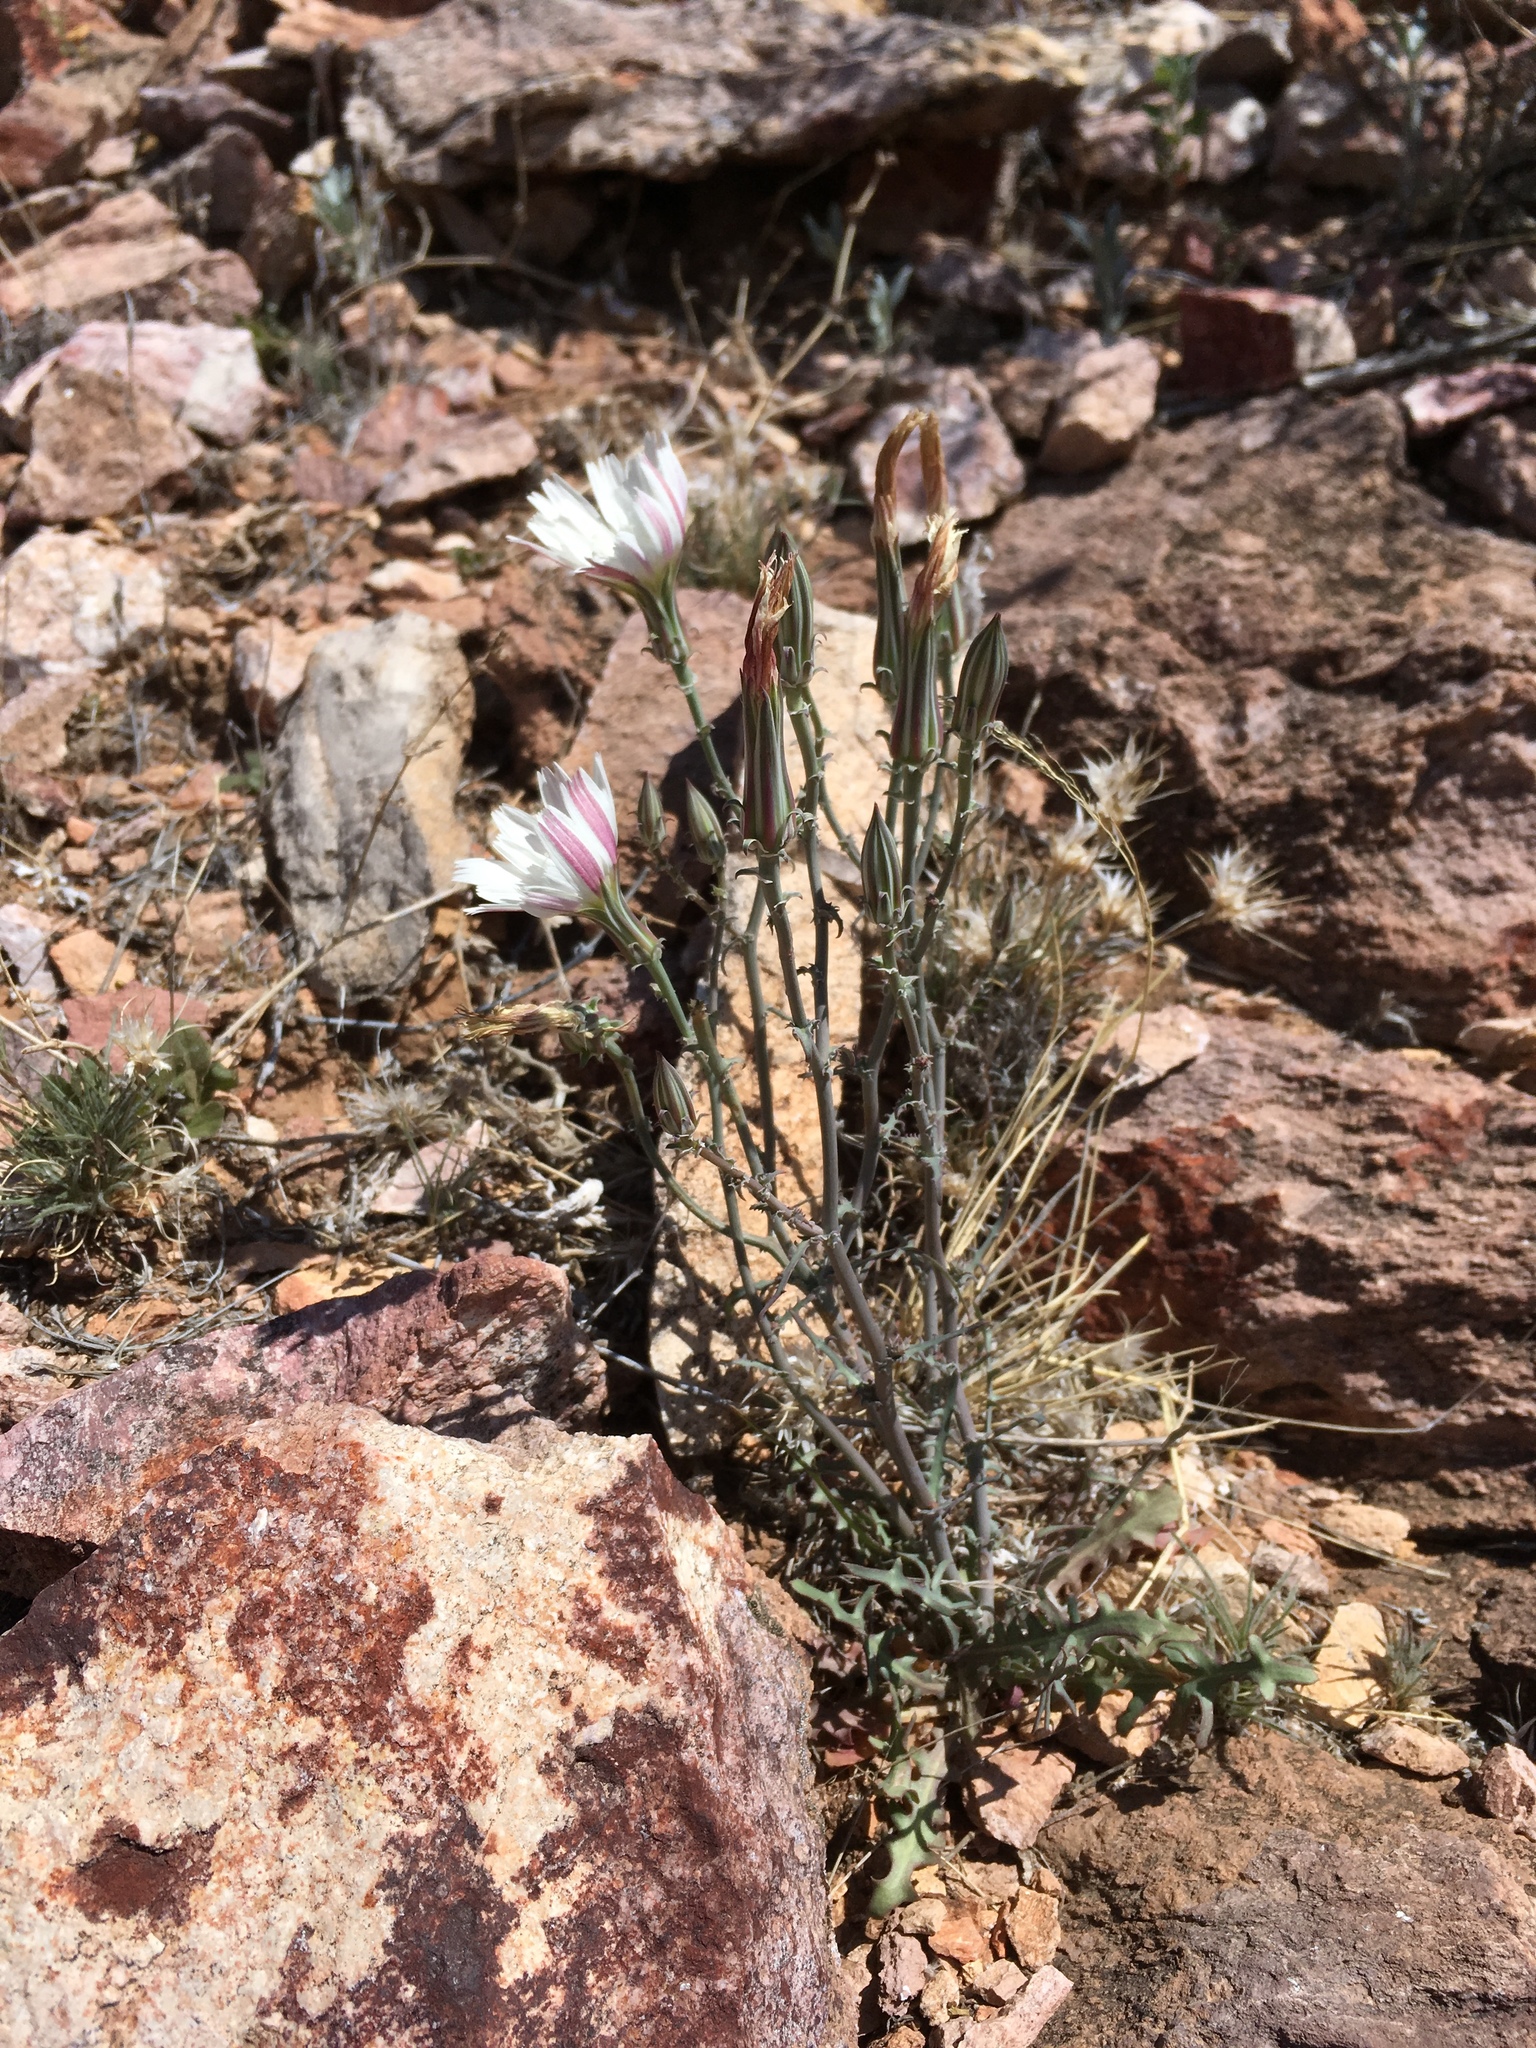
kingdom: Plantae
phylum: Tracheophyta
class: Magnoliopsida
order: Asterales
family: Asteraceae
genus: Rafinesquia
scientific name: Rafinesquia neomexicana
